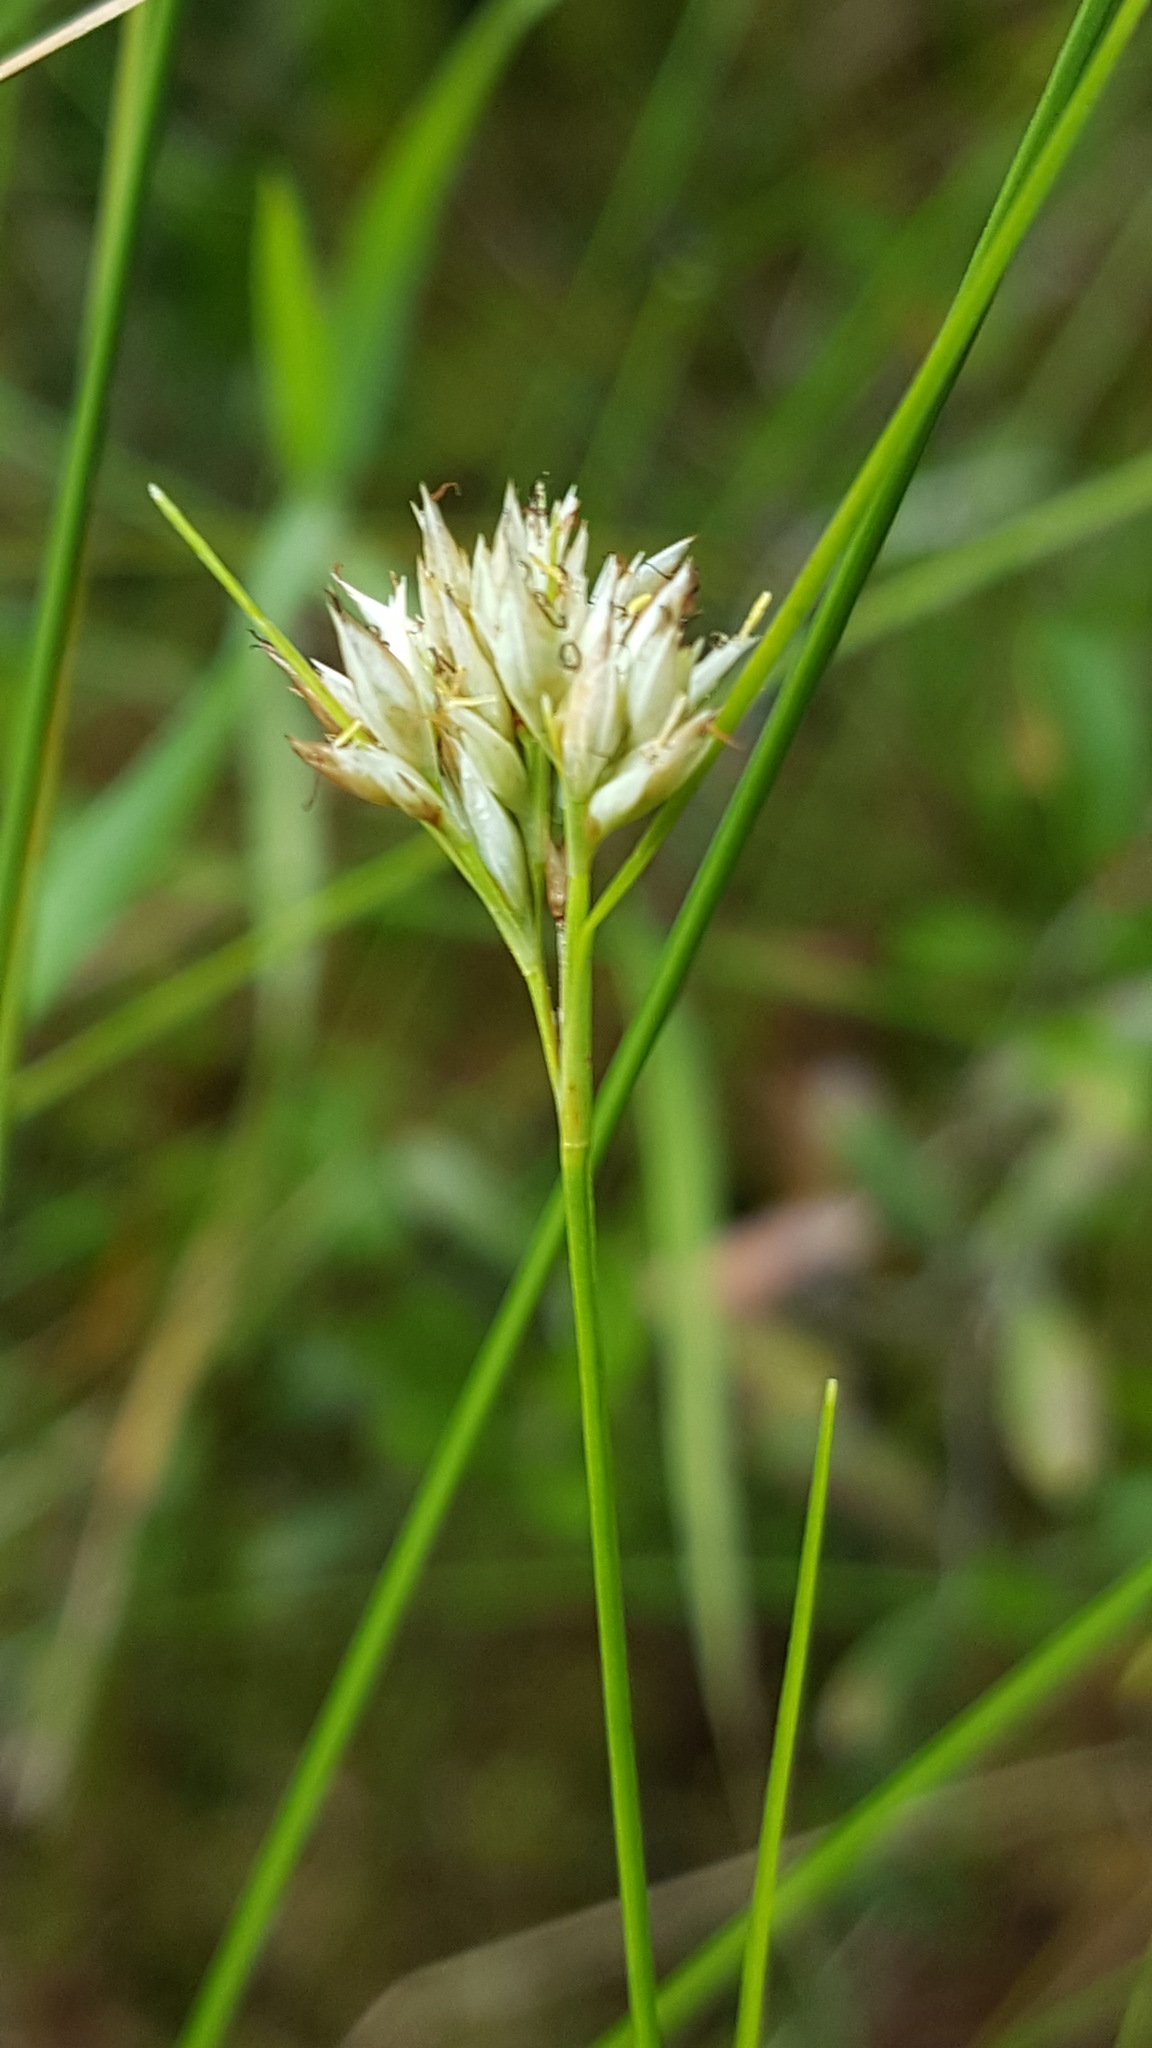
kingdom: Plantae
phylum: Tracheophyta
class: Liliopsida
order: Poales
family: Cyperaceae
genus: Rhynchospora
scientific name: Rhynchospora alba
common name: White beak-sedge
